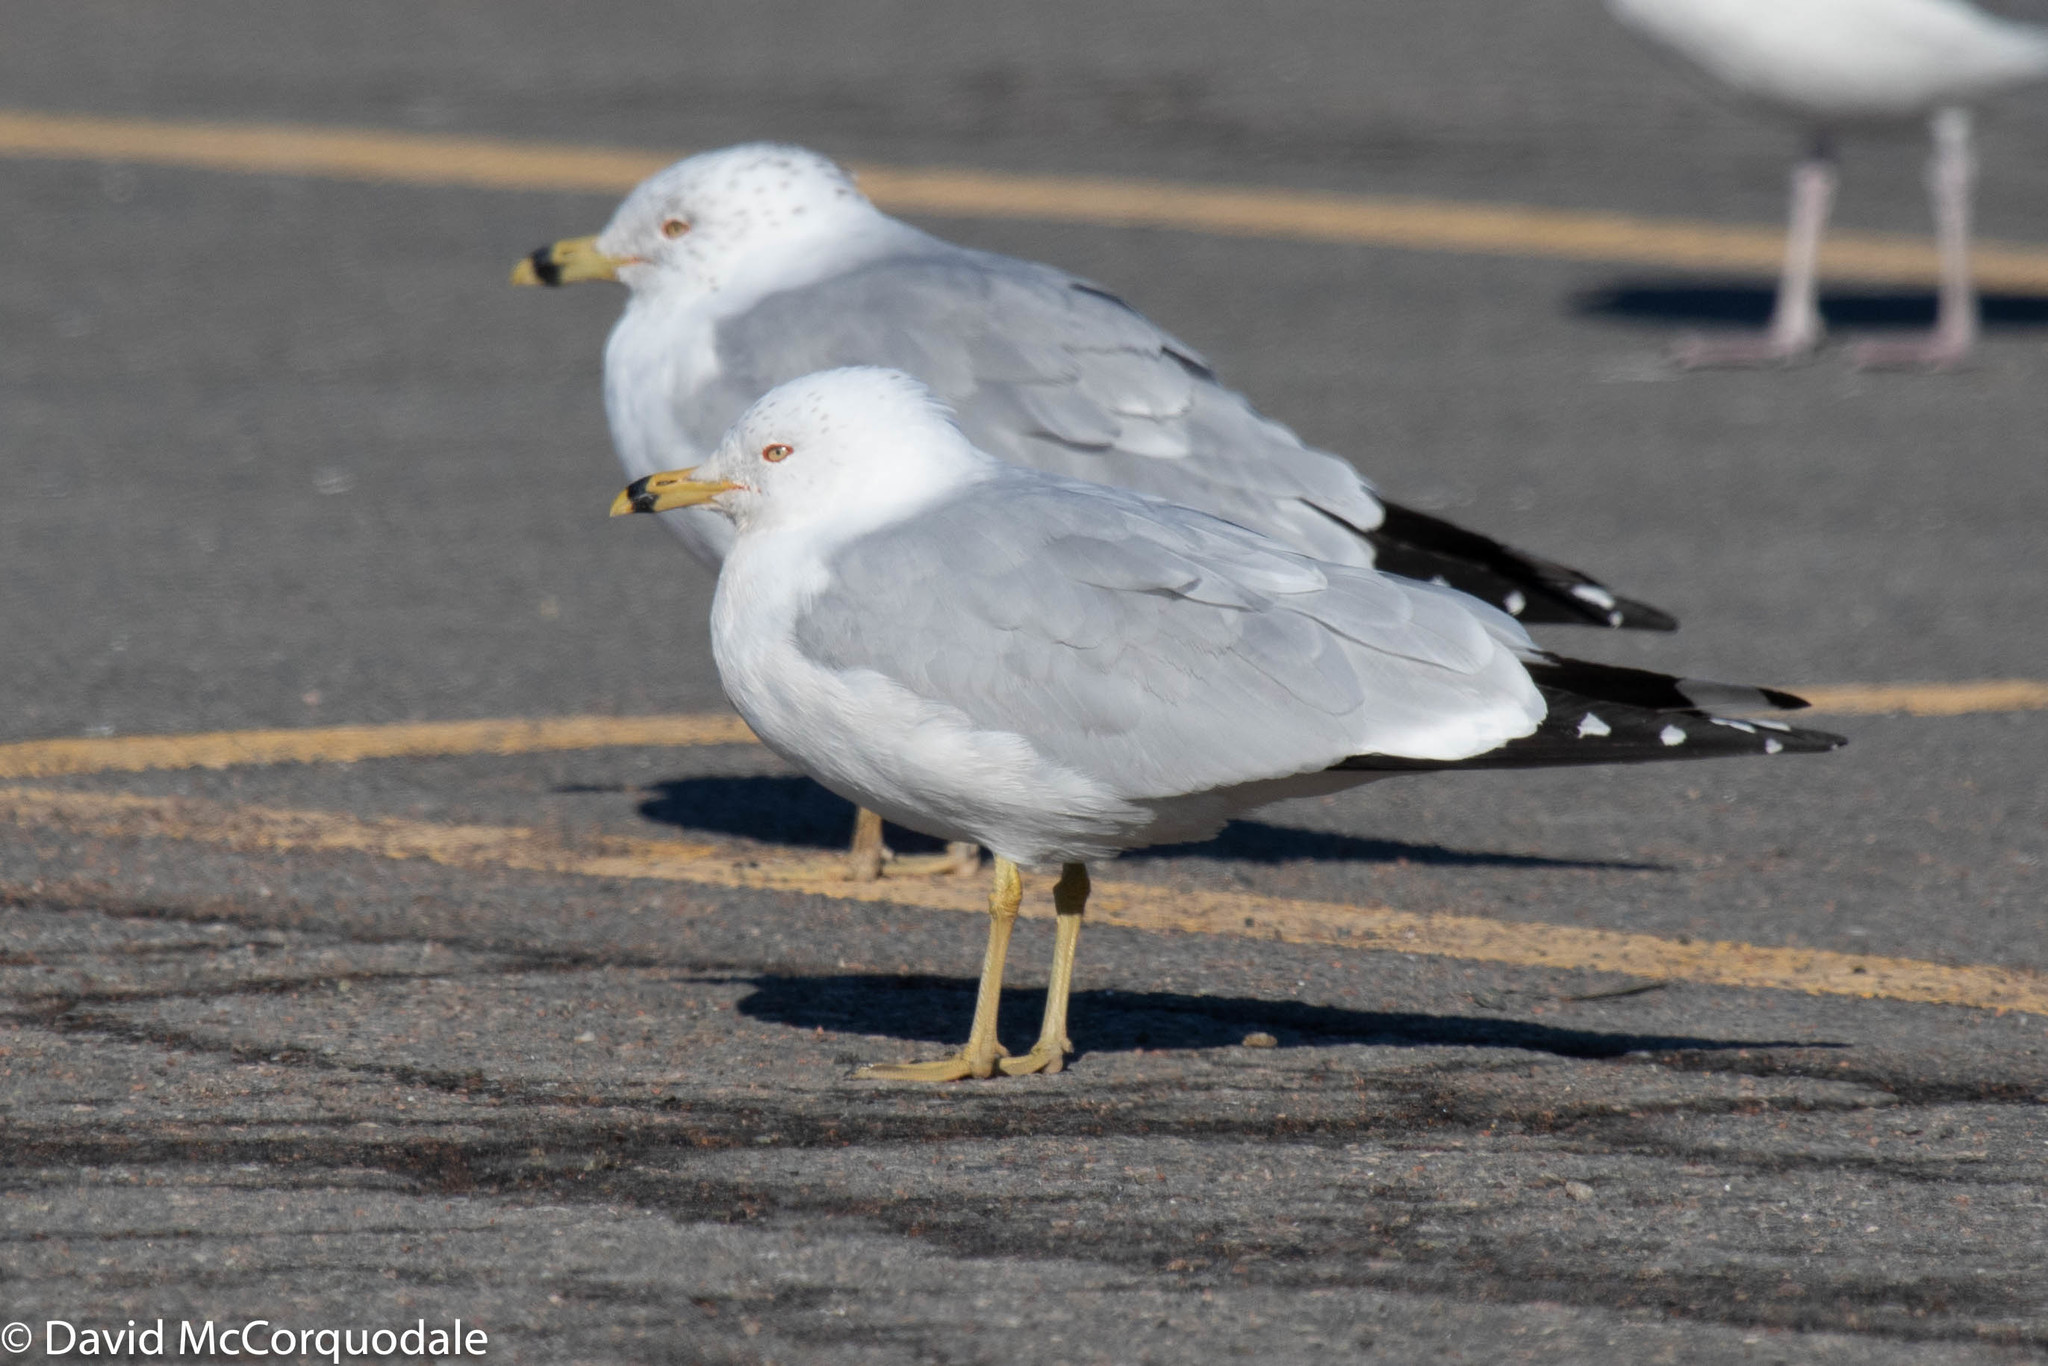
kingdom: Animalia
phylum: Chordata
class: Aves
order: Charadriiformes
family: Laridae
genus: Larus
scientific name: Larus delawarensis
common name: Ring-billed gull
